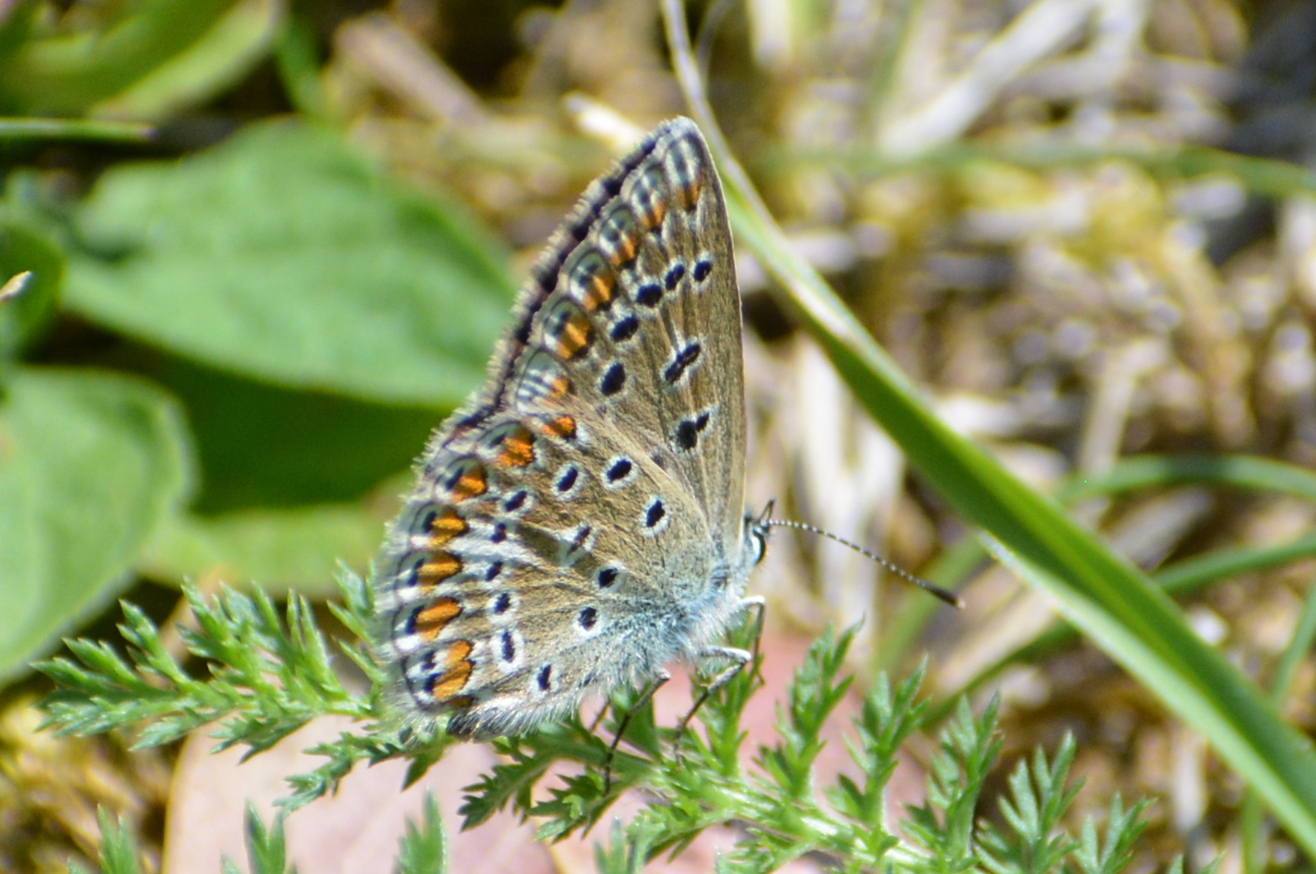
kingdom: Animalia
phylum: Arthropoda
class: Insecta
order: Lepidoptera
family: Lycaenidae
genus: Polyommatus
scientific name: Polyommatus icarus
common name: Common blue
